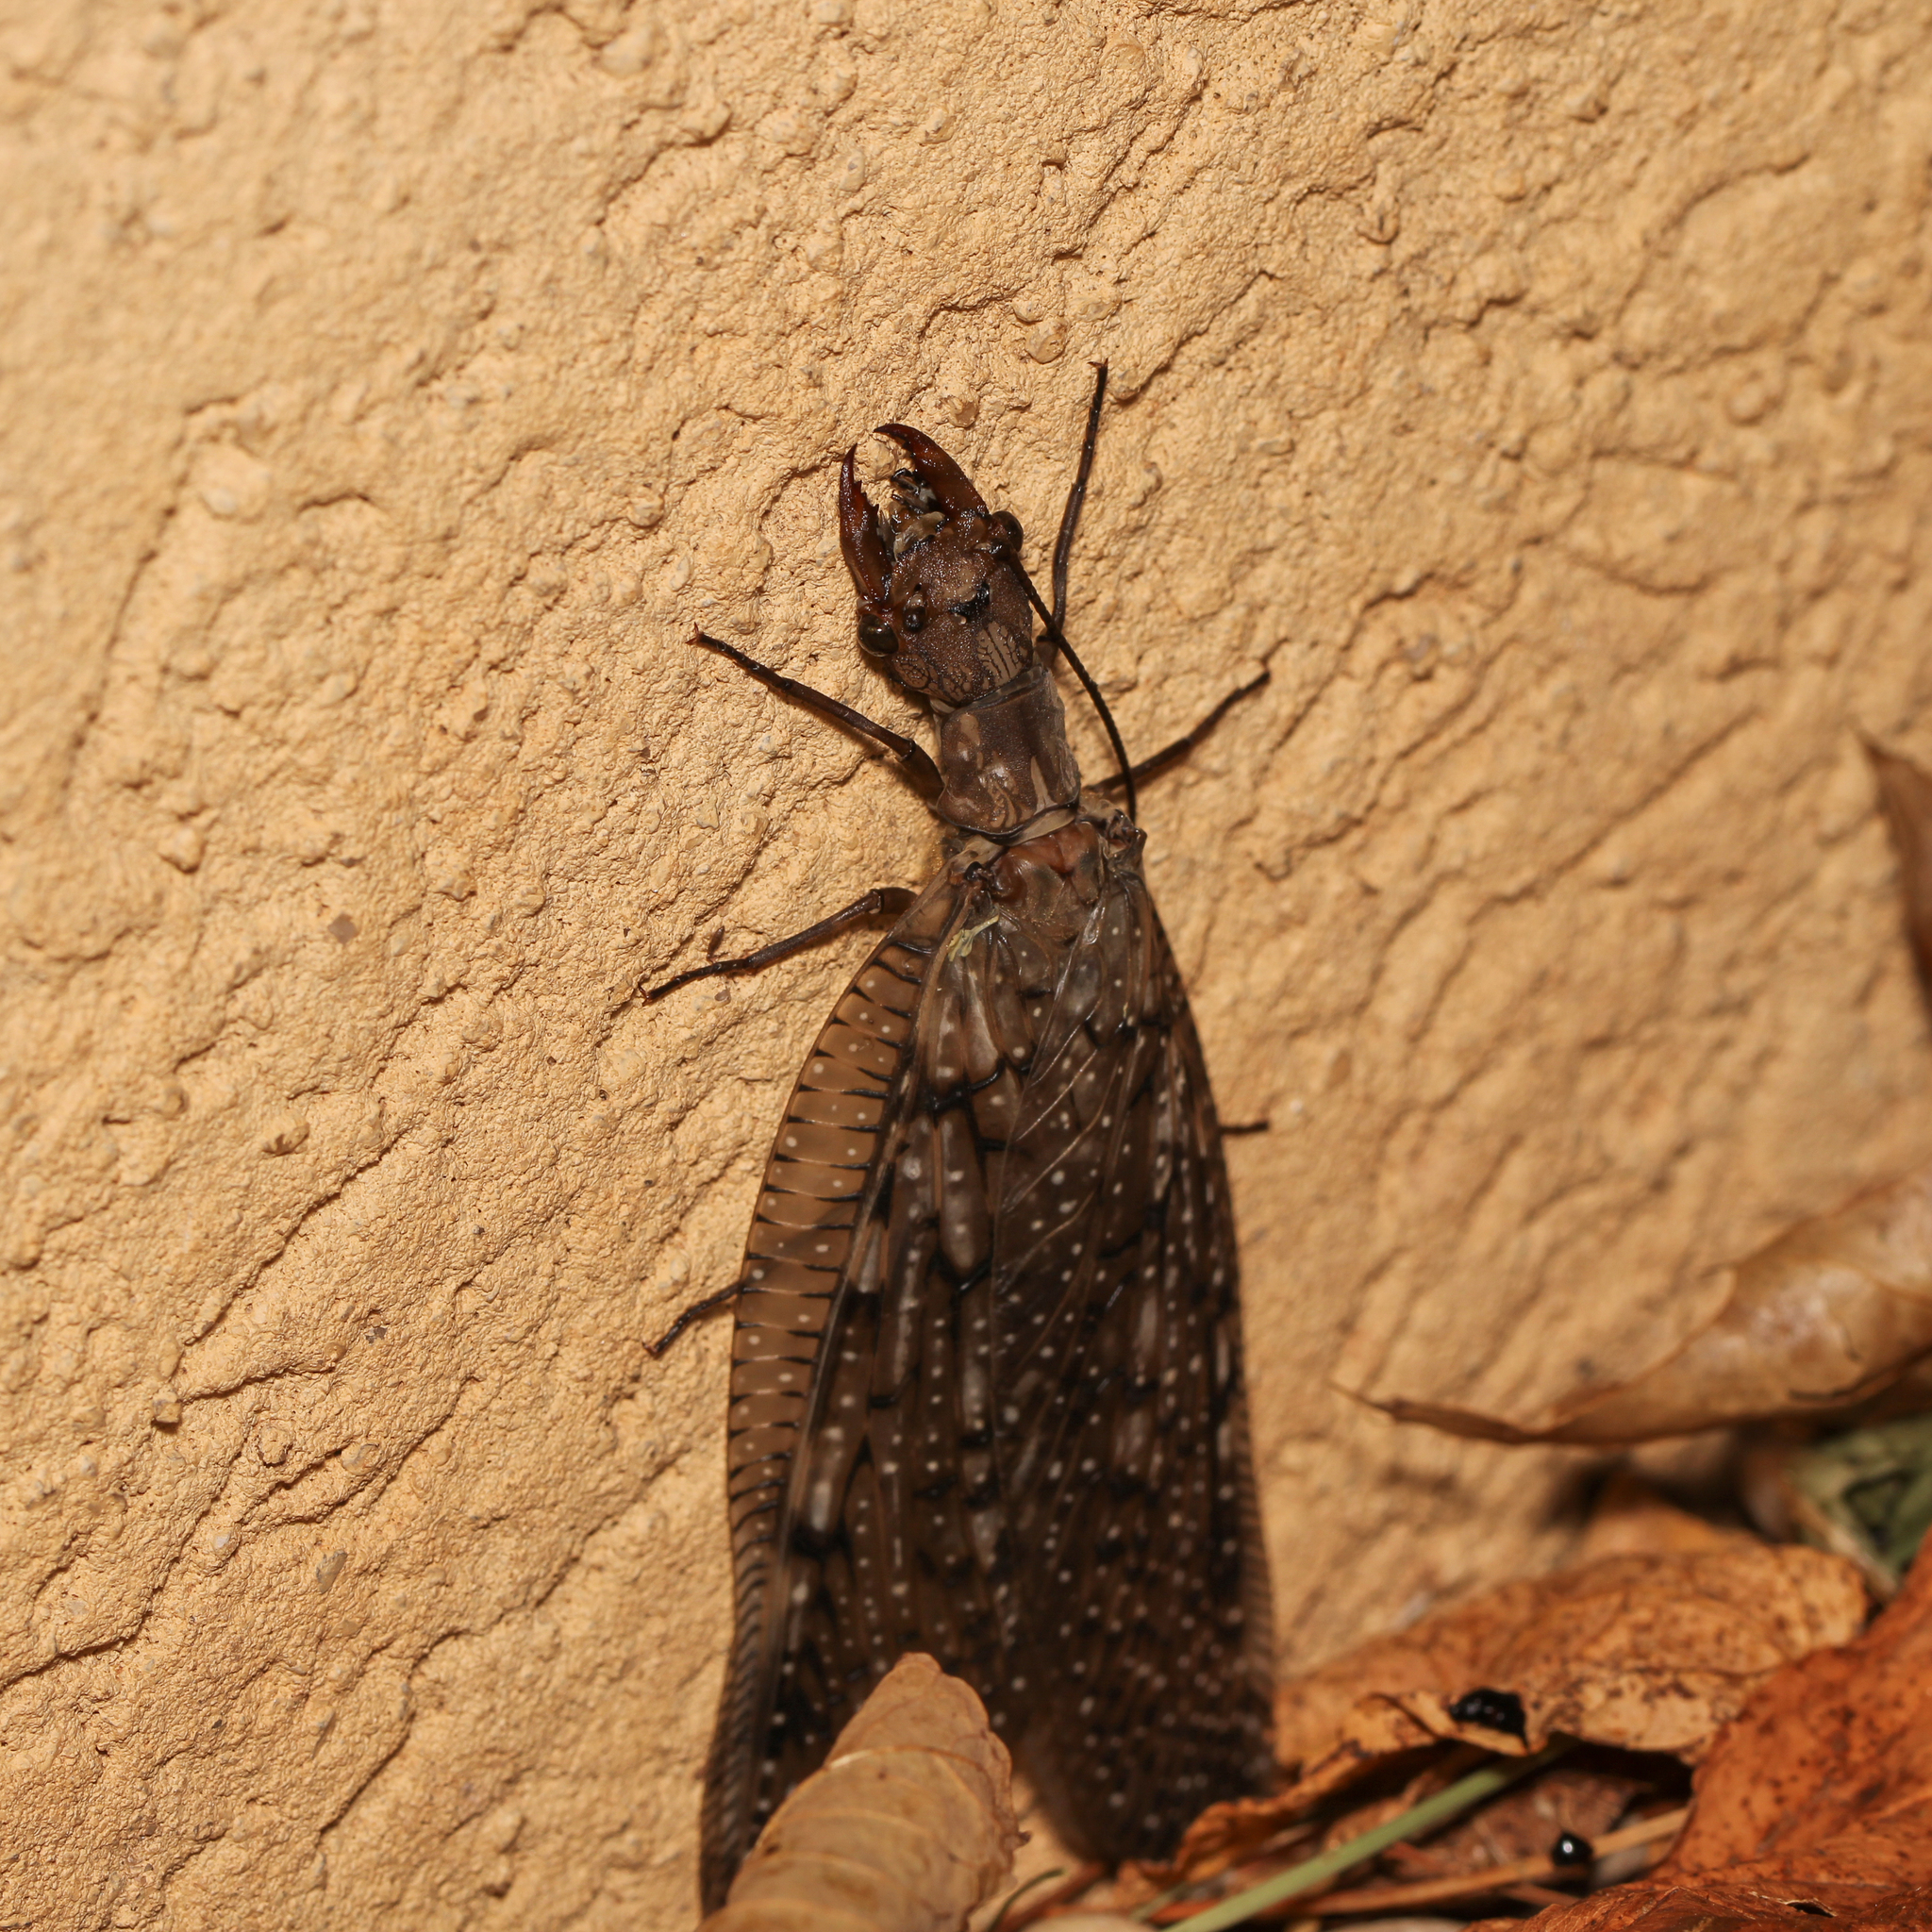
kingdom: Animalia
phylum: Arthropoda
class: Insecta
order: Megaloptera
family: Corydalidae
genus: Corydalus
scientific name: Corydalus cornutus
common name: Dobsonfly
